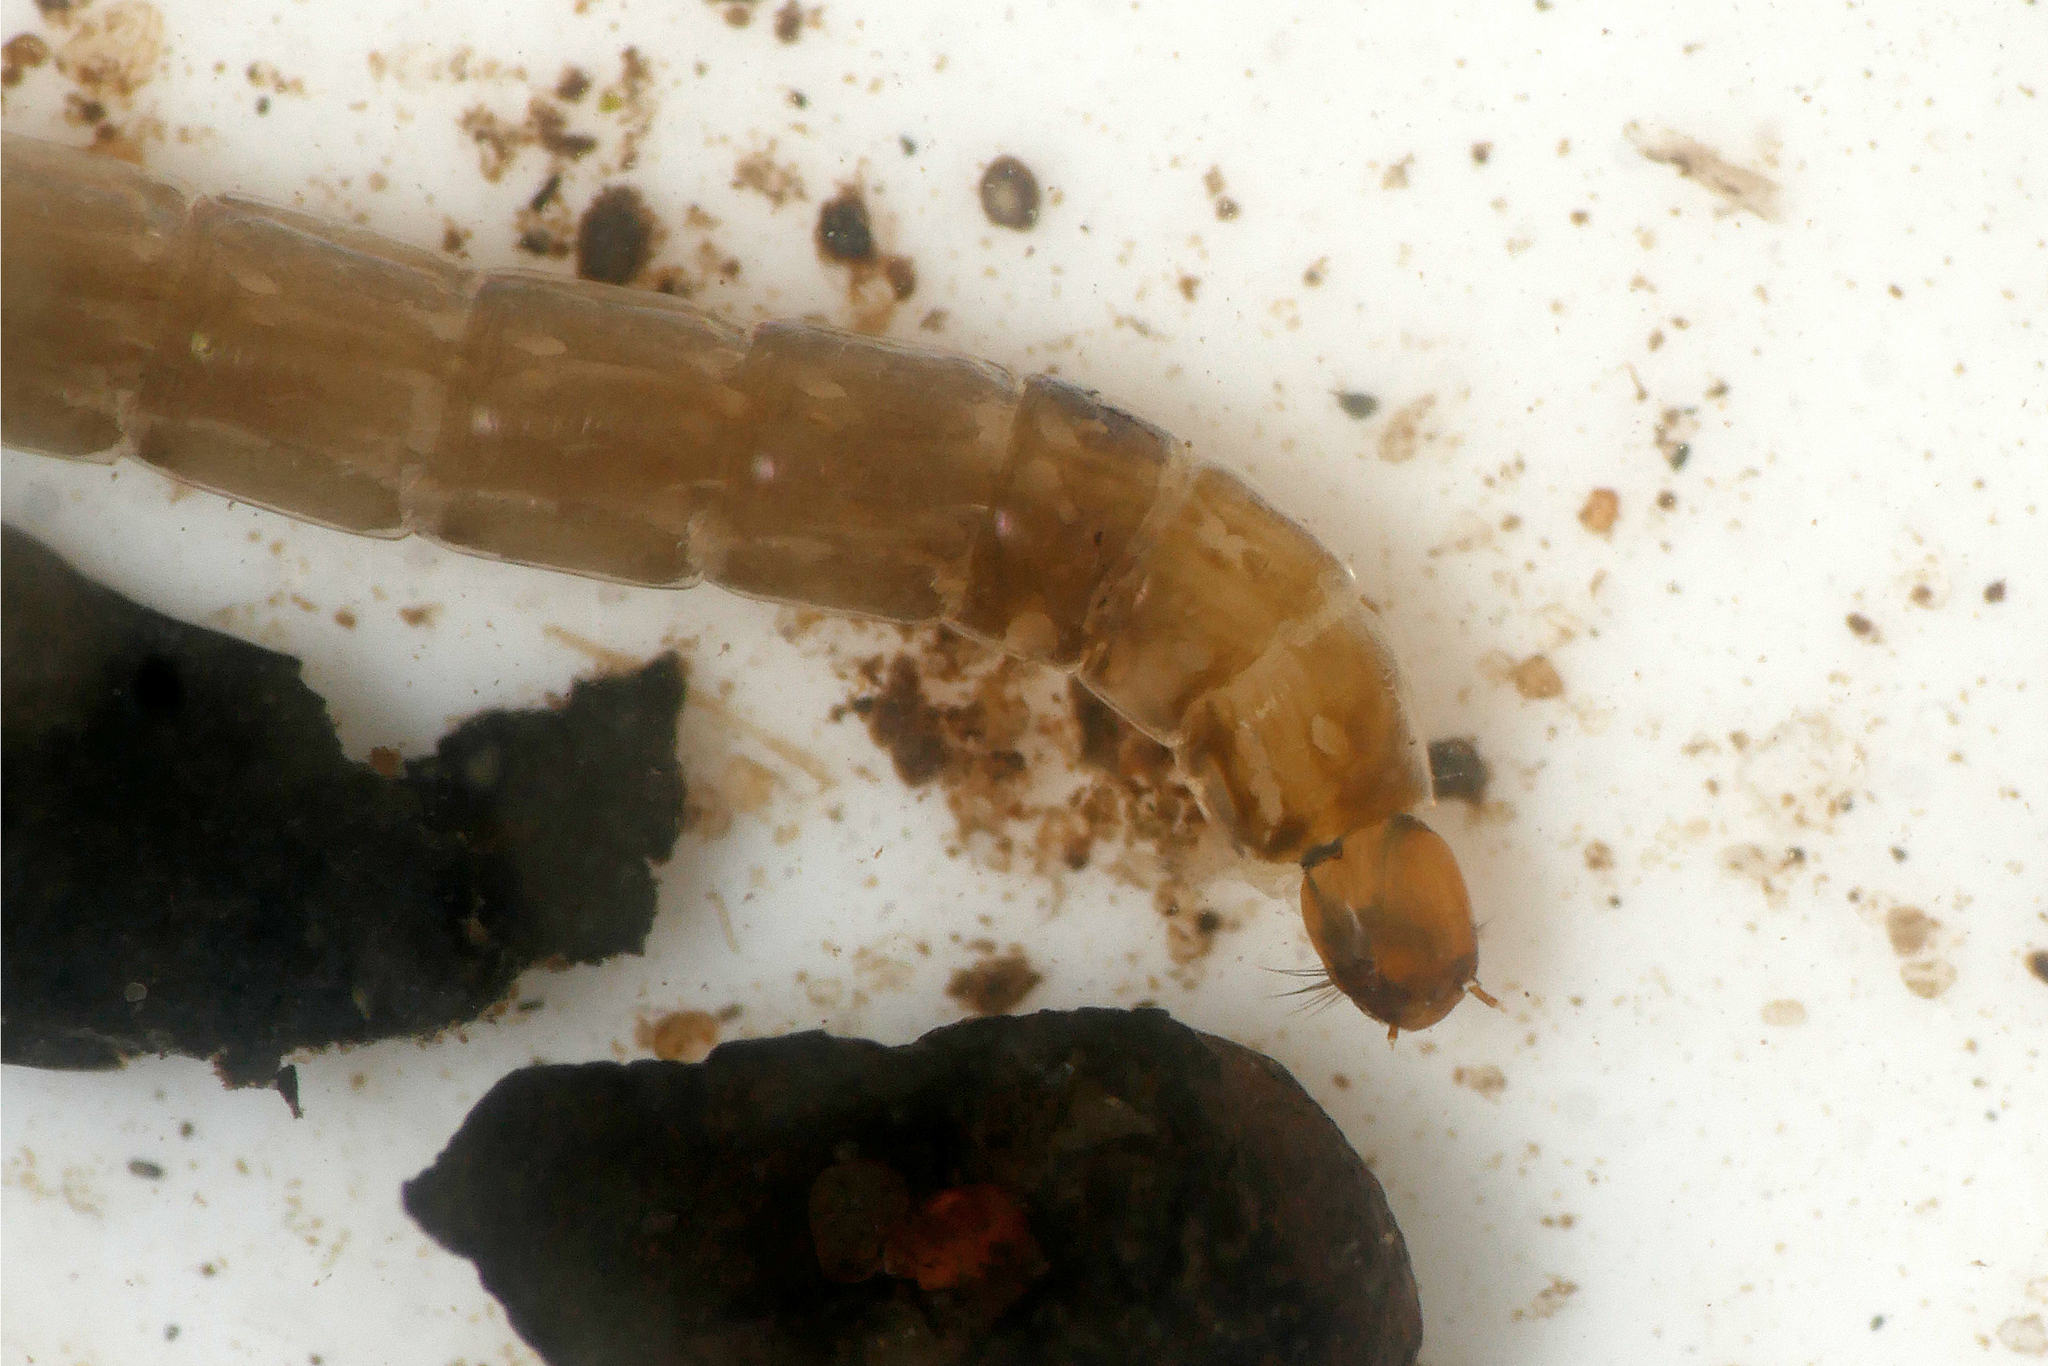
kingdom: Animalia
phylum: Arthropoda
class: Insecta
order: Diptera
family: Chironomidae
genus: Prodiamesa
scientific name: Prodiamesa olivacea
